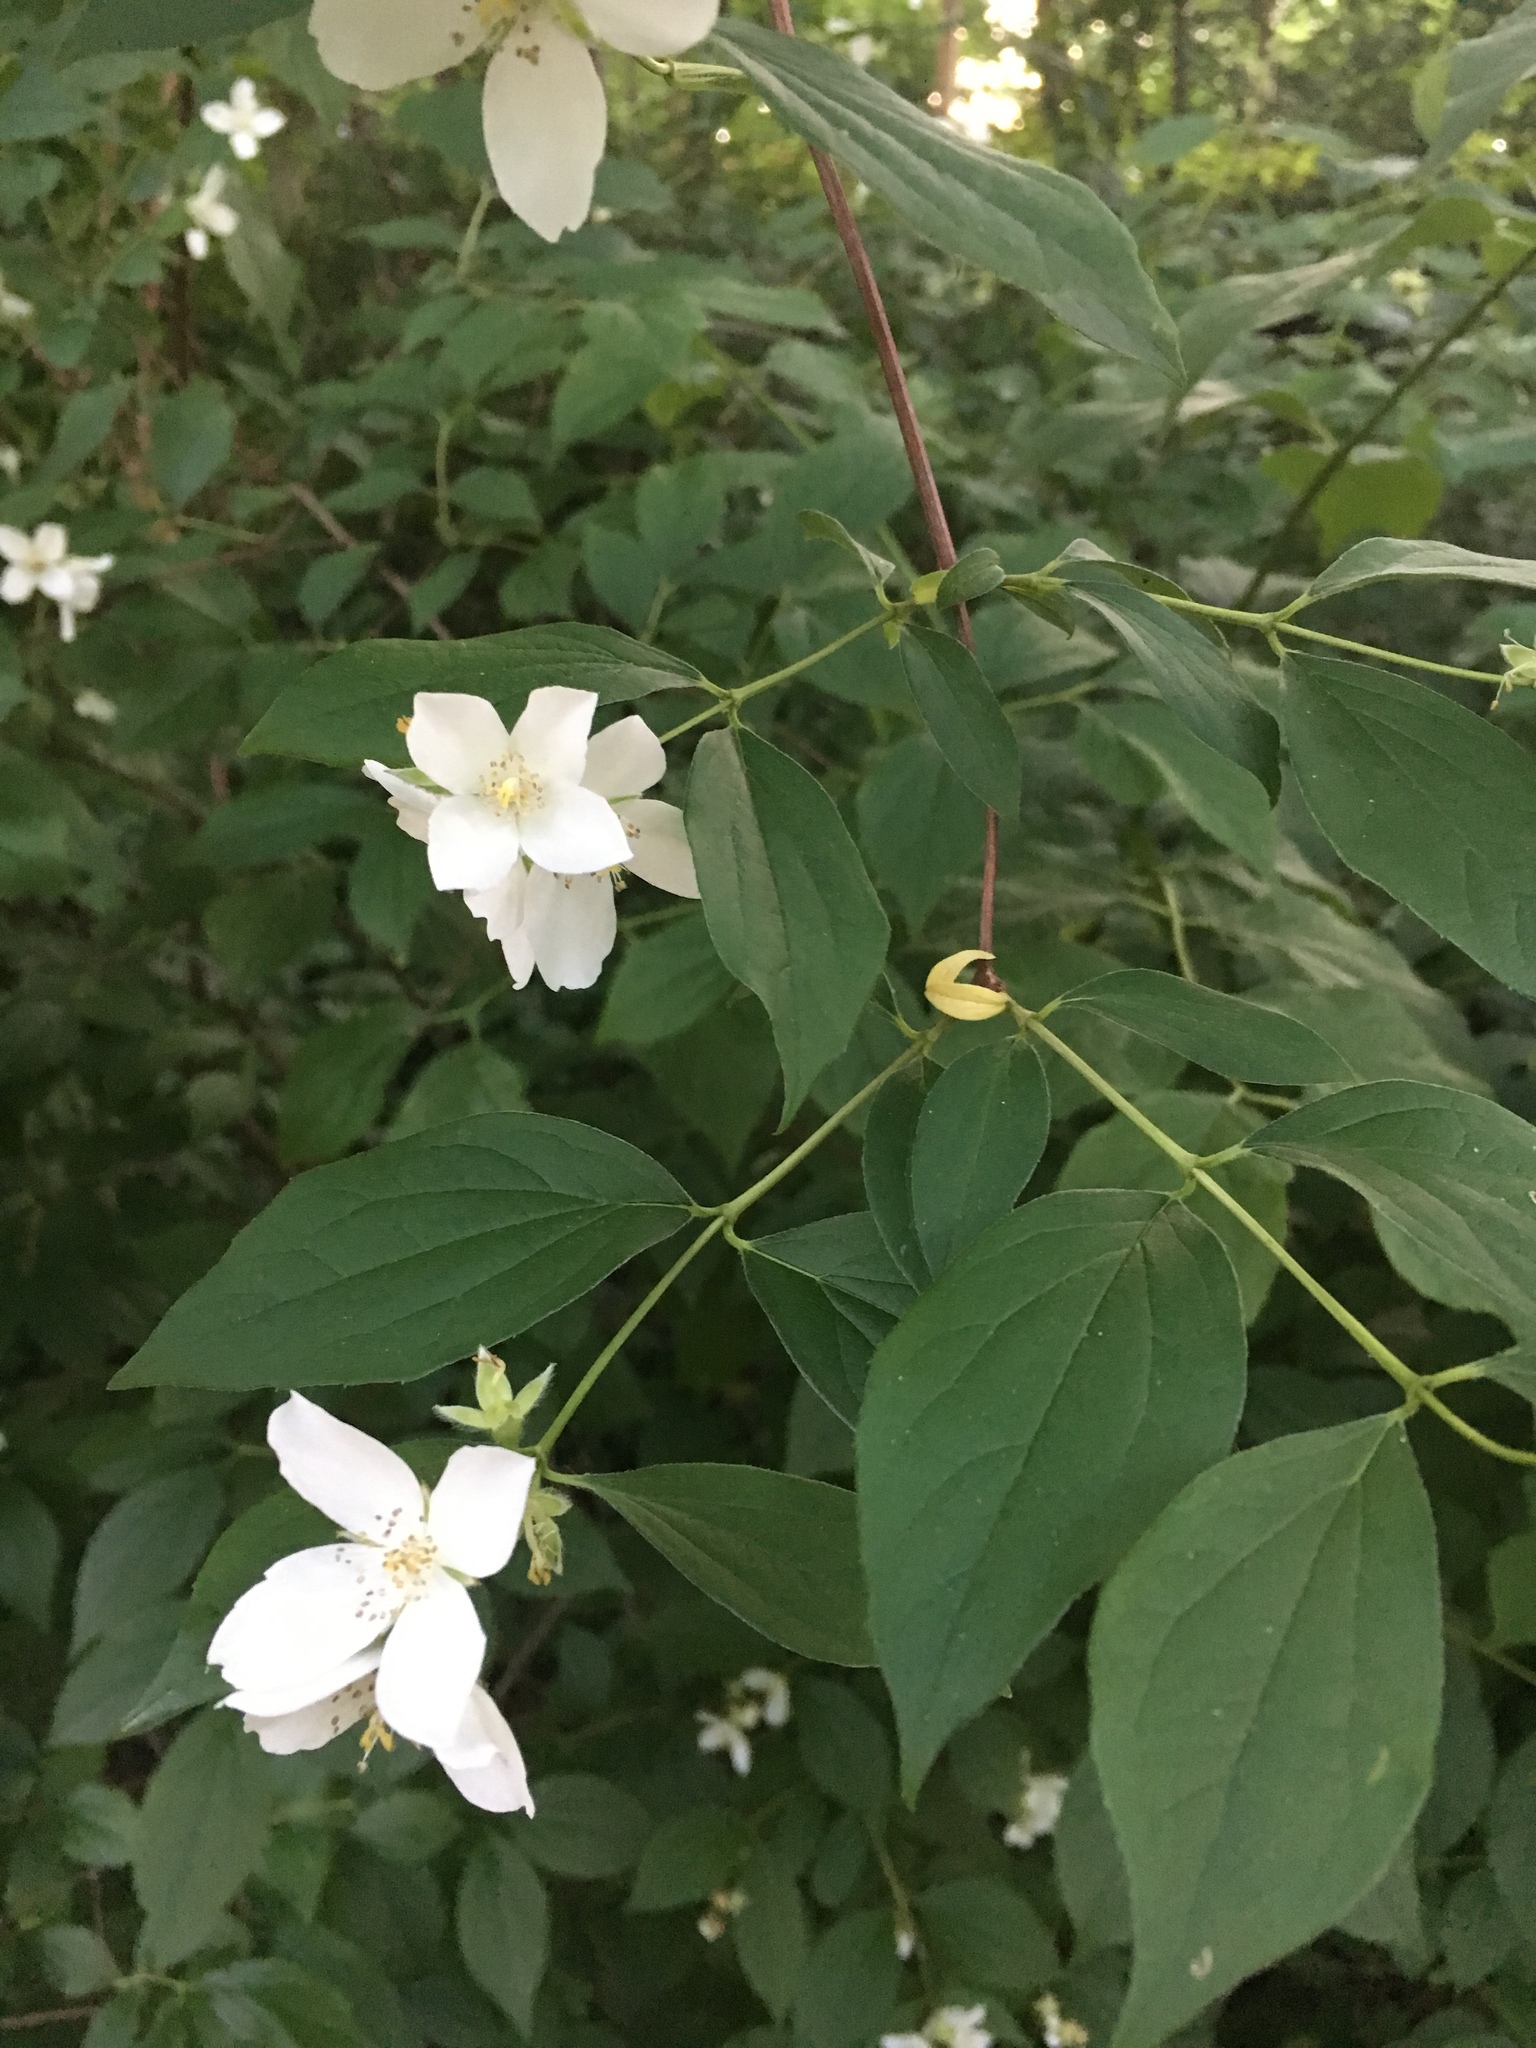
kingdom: Plantae
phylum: Tracheophyta
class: Magnoliopsida
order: Cornales
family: Hydrangeaceae
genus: Philadelphus
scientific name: Philadelphus coronarius
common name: Mock orange
